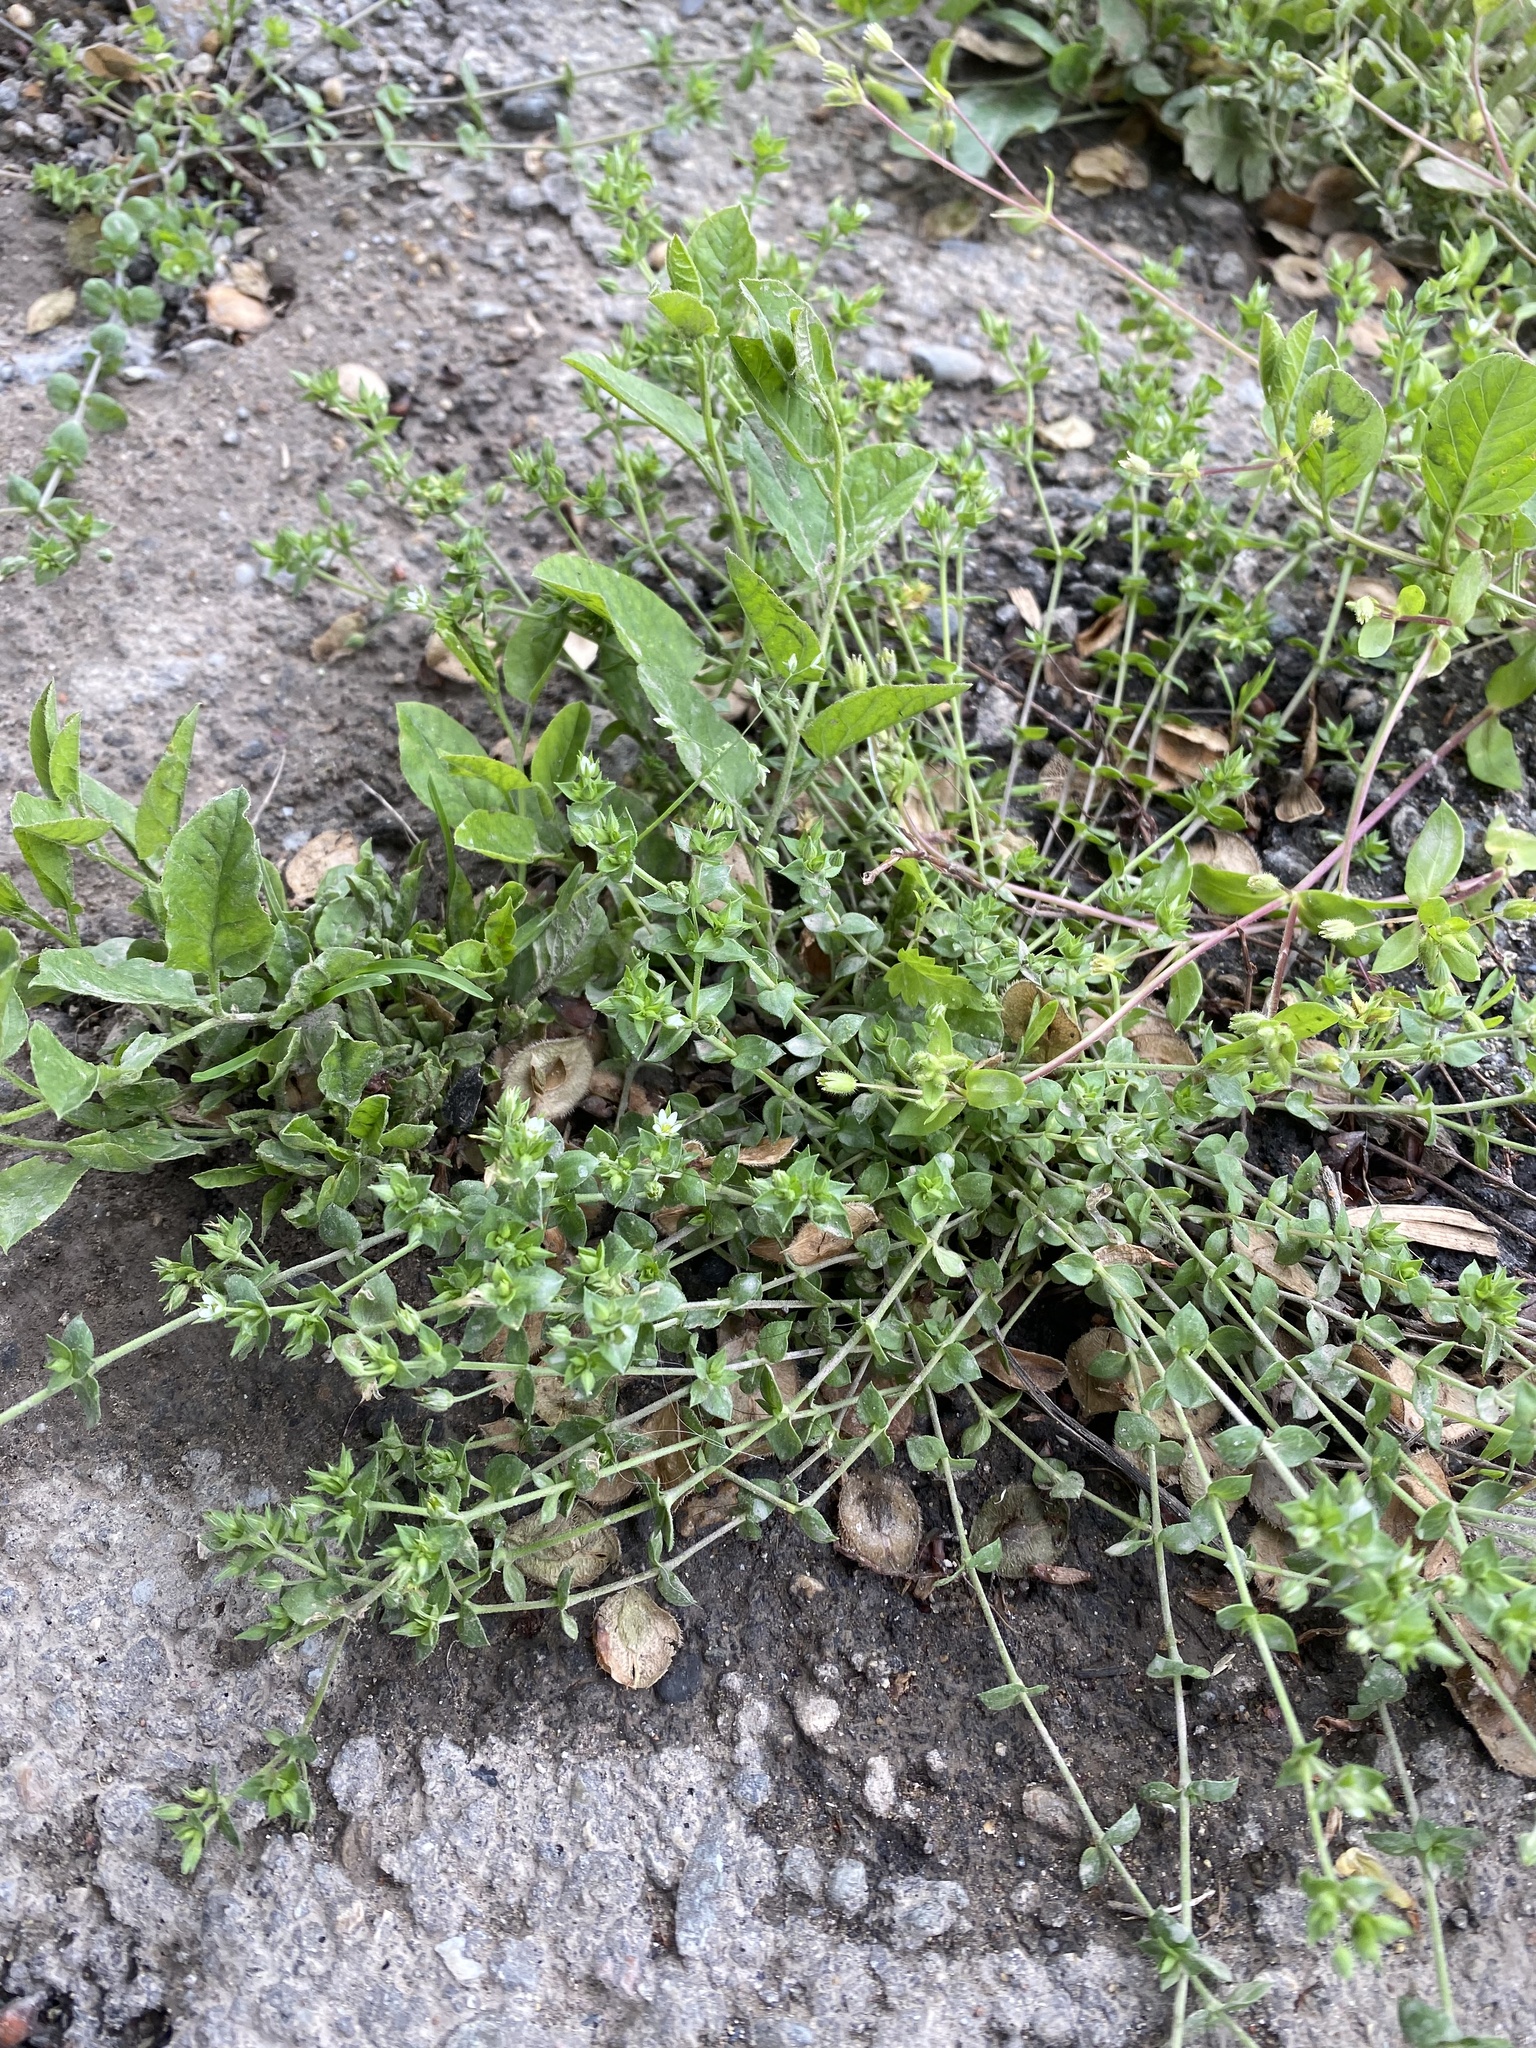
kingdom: Plantae
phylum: Tracheophyta
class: Magnoliopsida
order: Caryophyllales
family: Caryophyllaceae
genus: Arenaria
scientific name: Arenaria serpyllifolia
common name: Thyme-leaved sandwort
